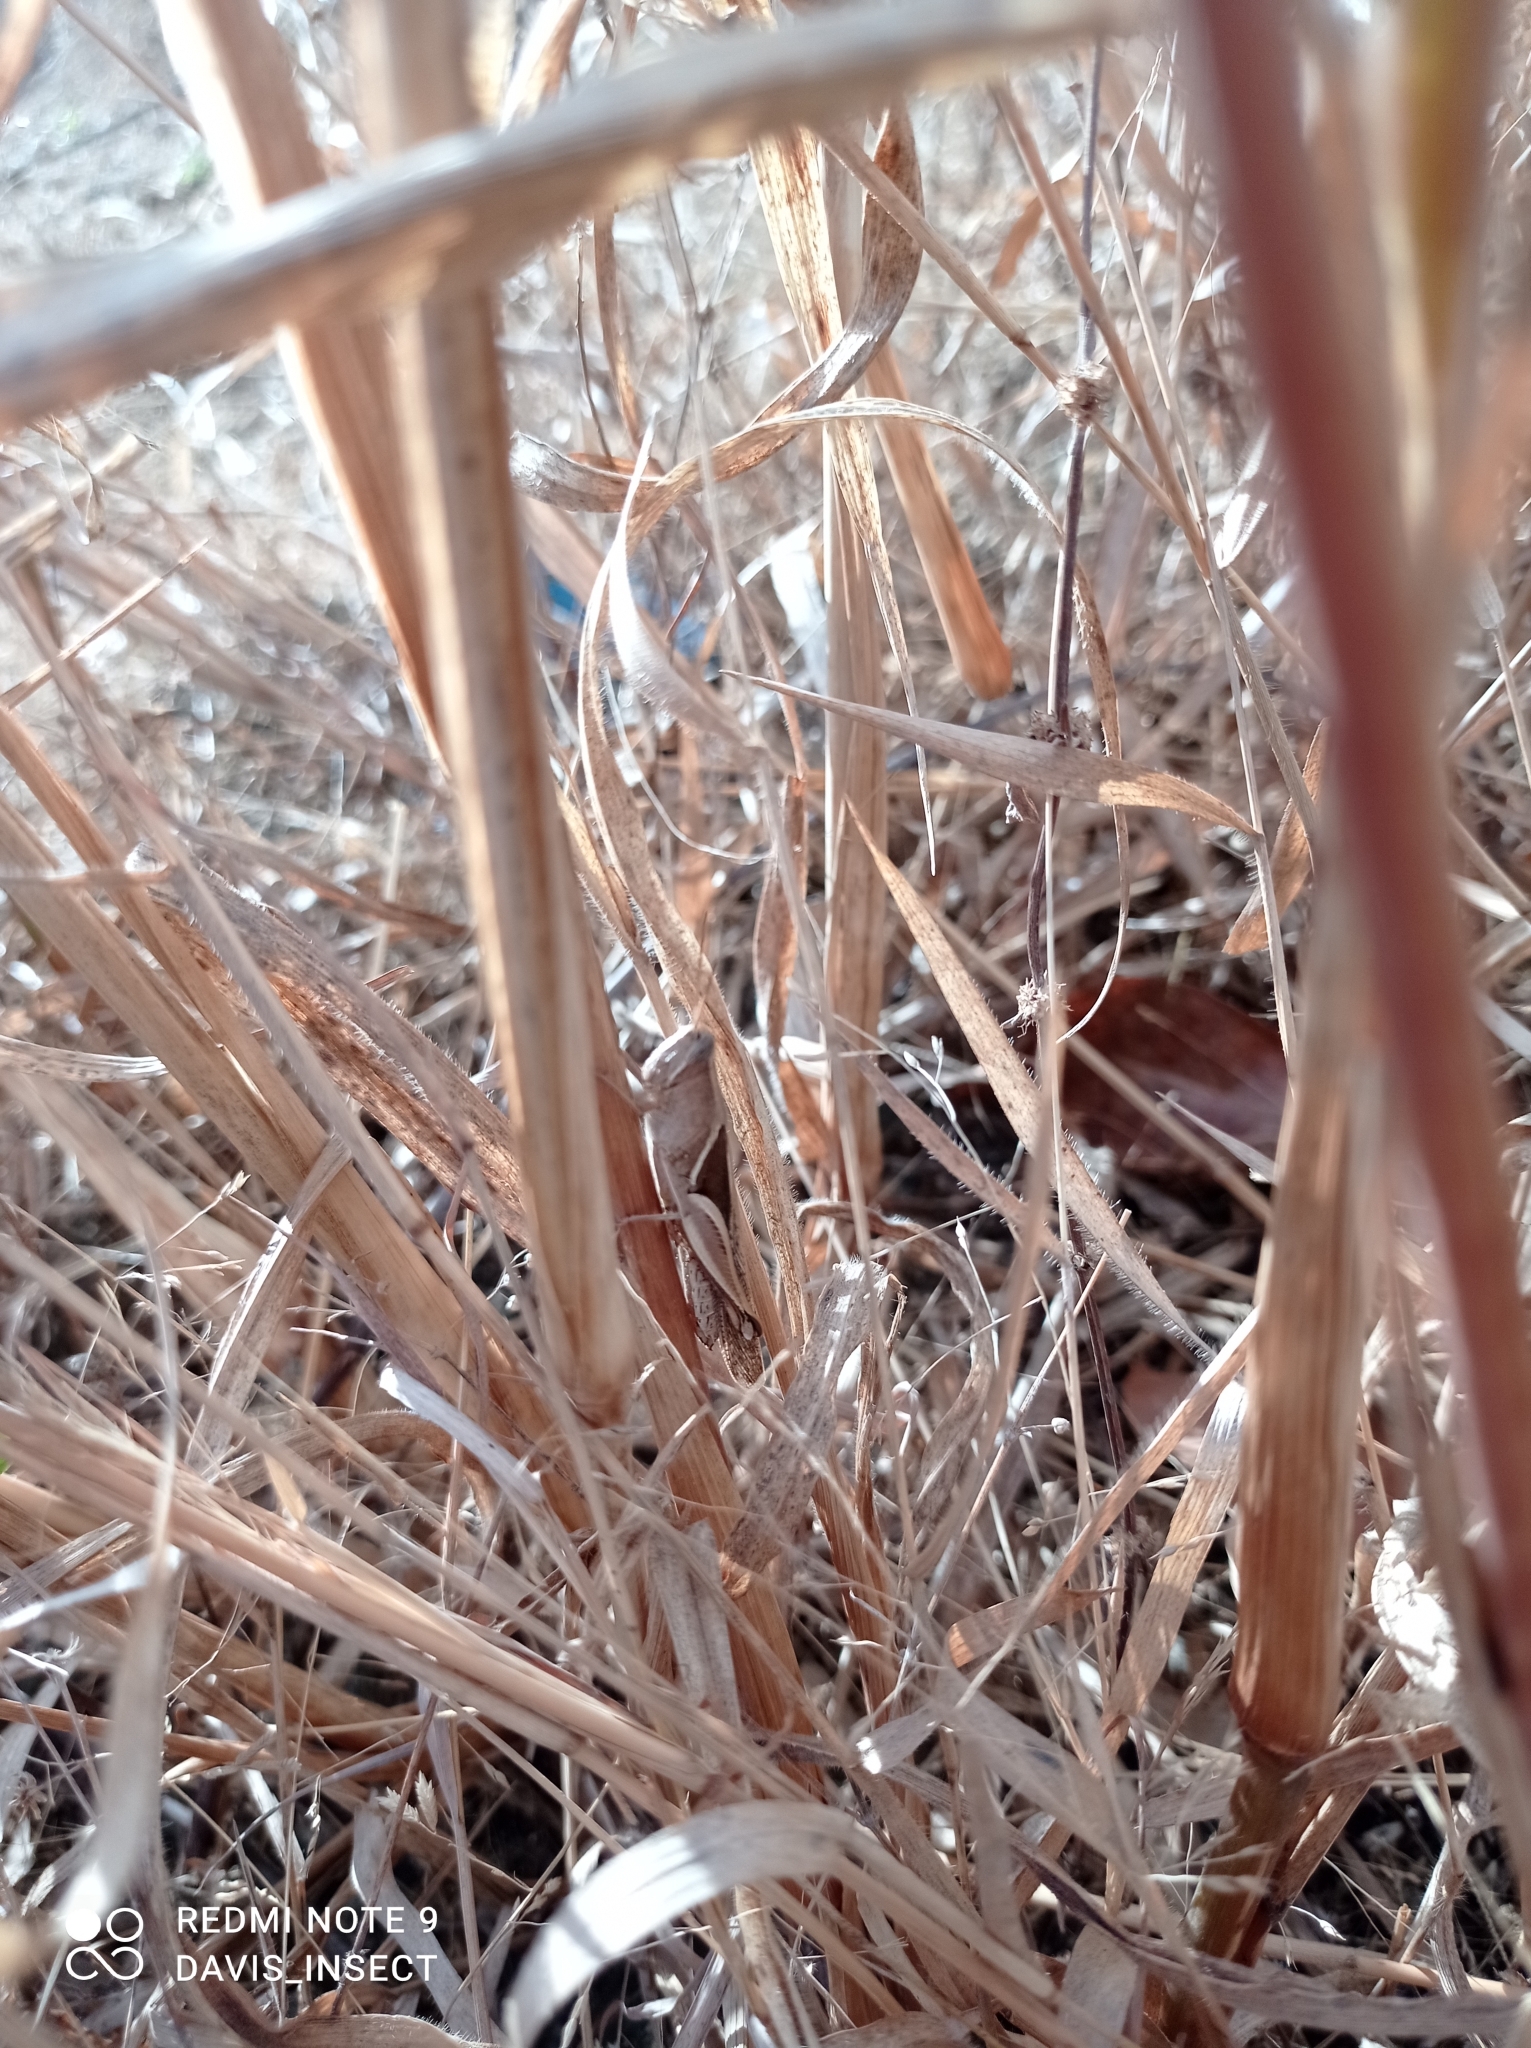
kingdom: Animalia
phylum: Arthropoda
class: Insecta
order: Orthoptera
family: Acrididae
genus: Stenocatantops
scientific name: Stenocatantops exinsula
